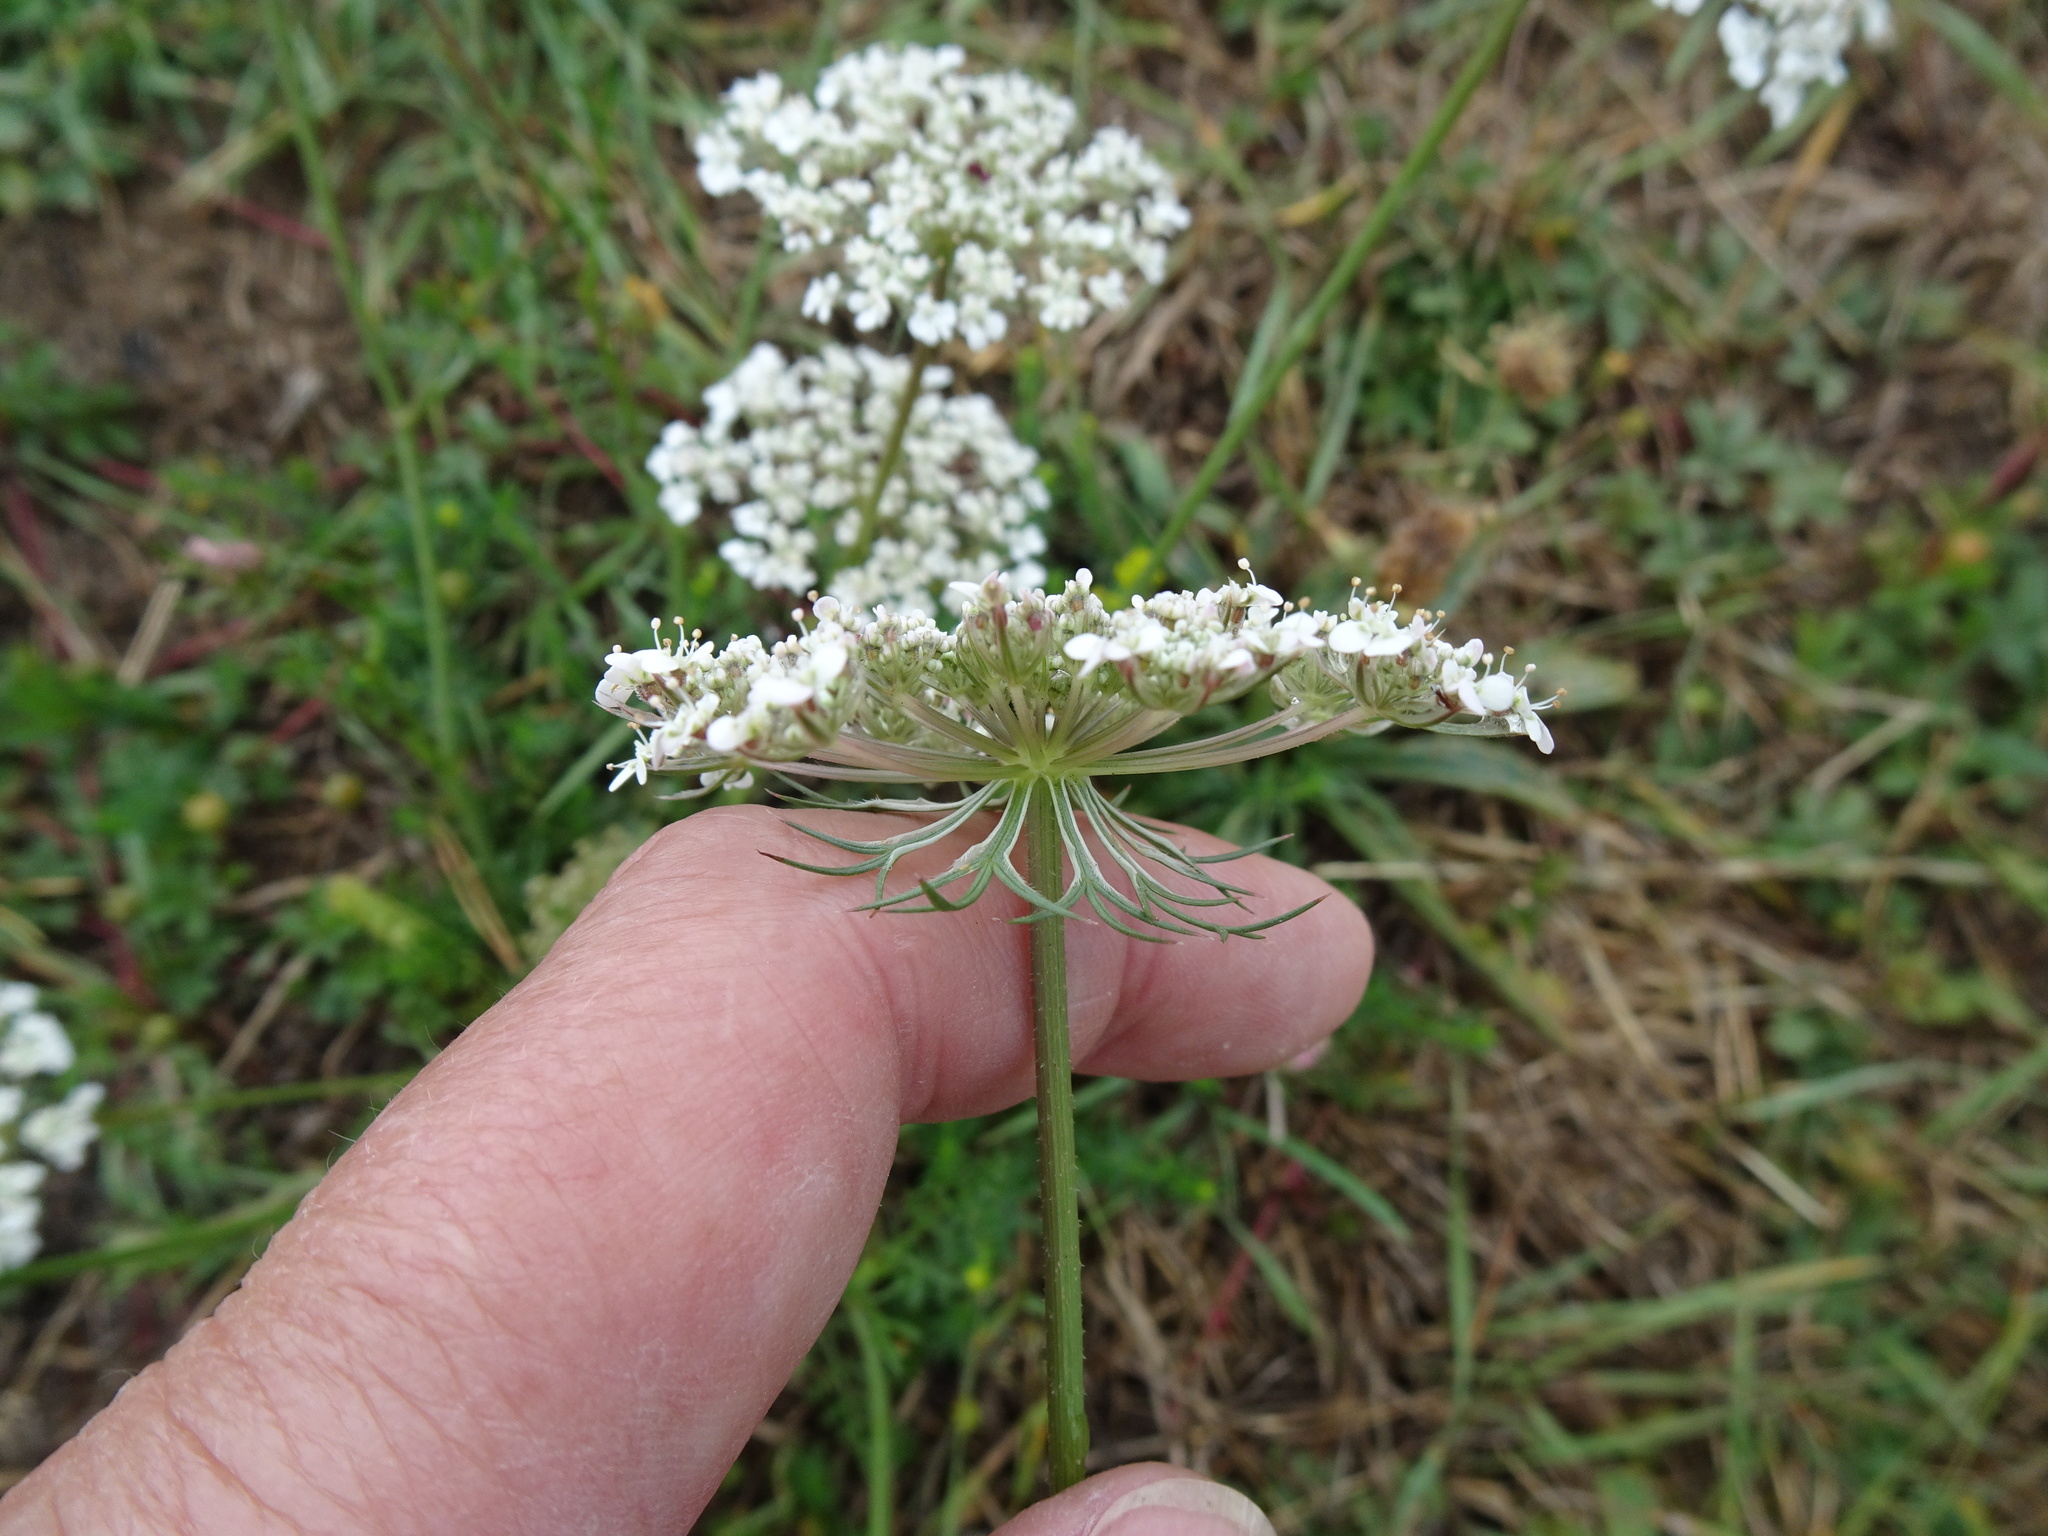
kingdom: Plantae
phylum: Tracheophyta
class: Magnoliopsida
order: Apiales
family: Apiaceae
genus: Daucus
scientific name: Daucus carota
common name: Wild carrot
